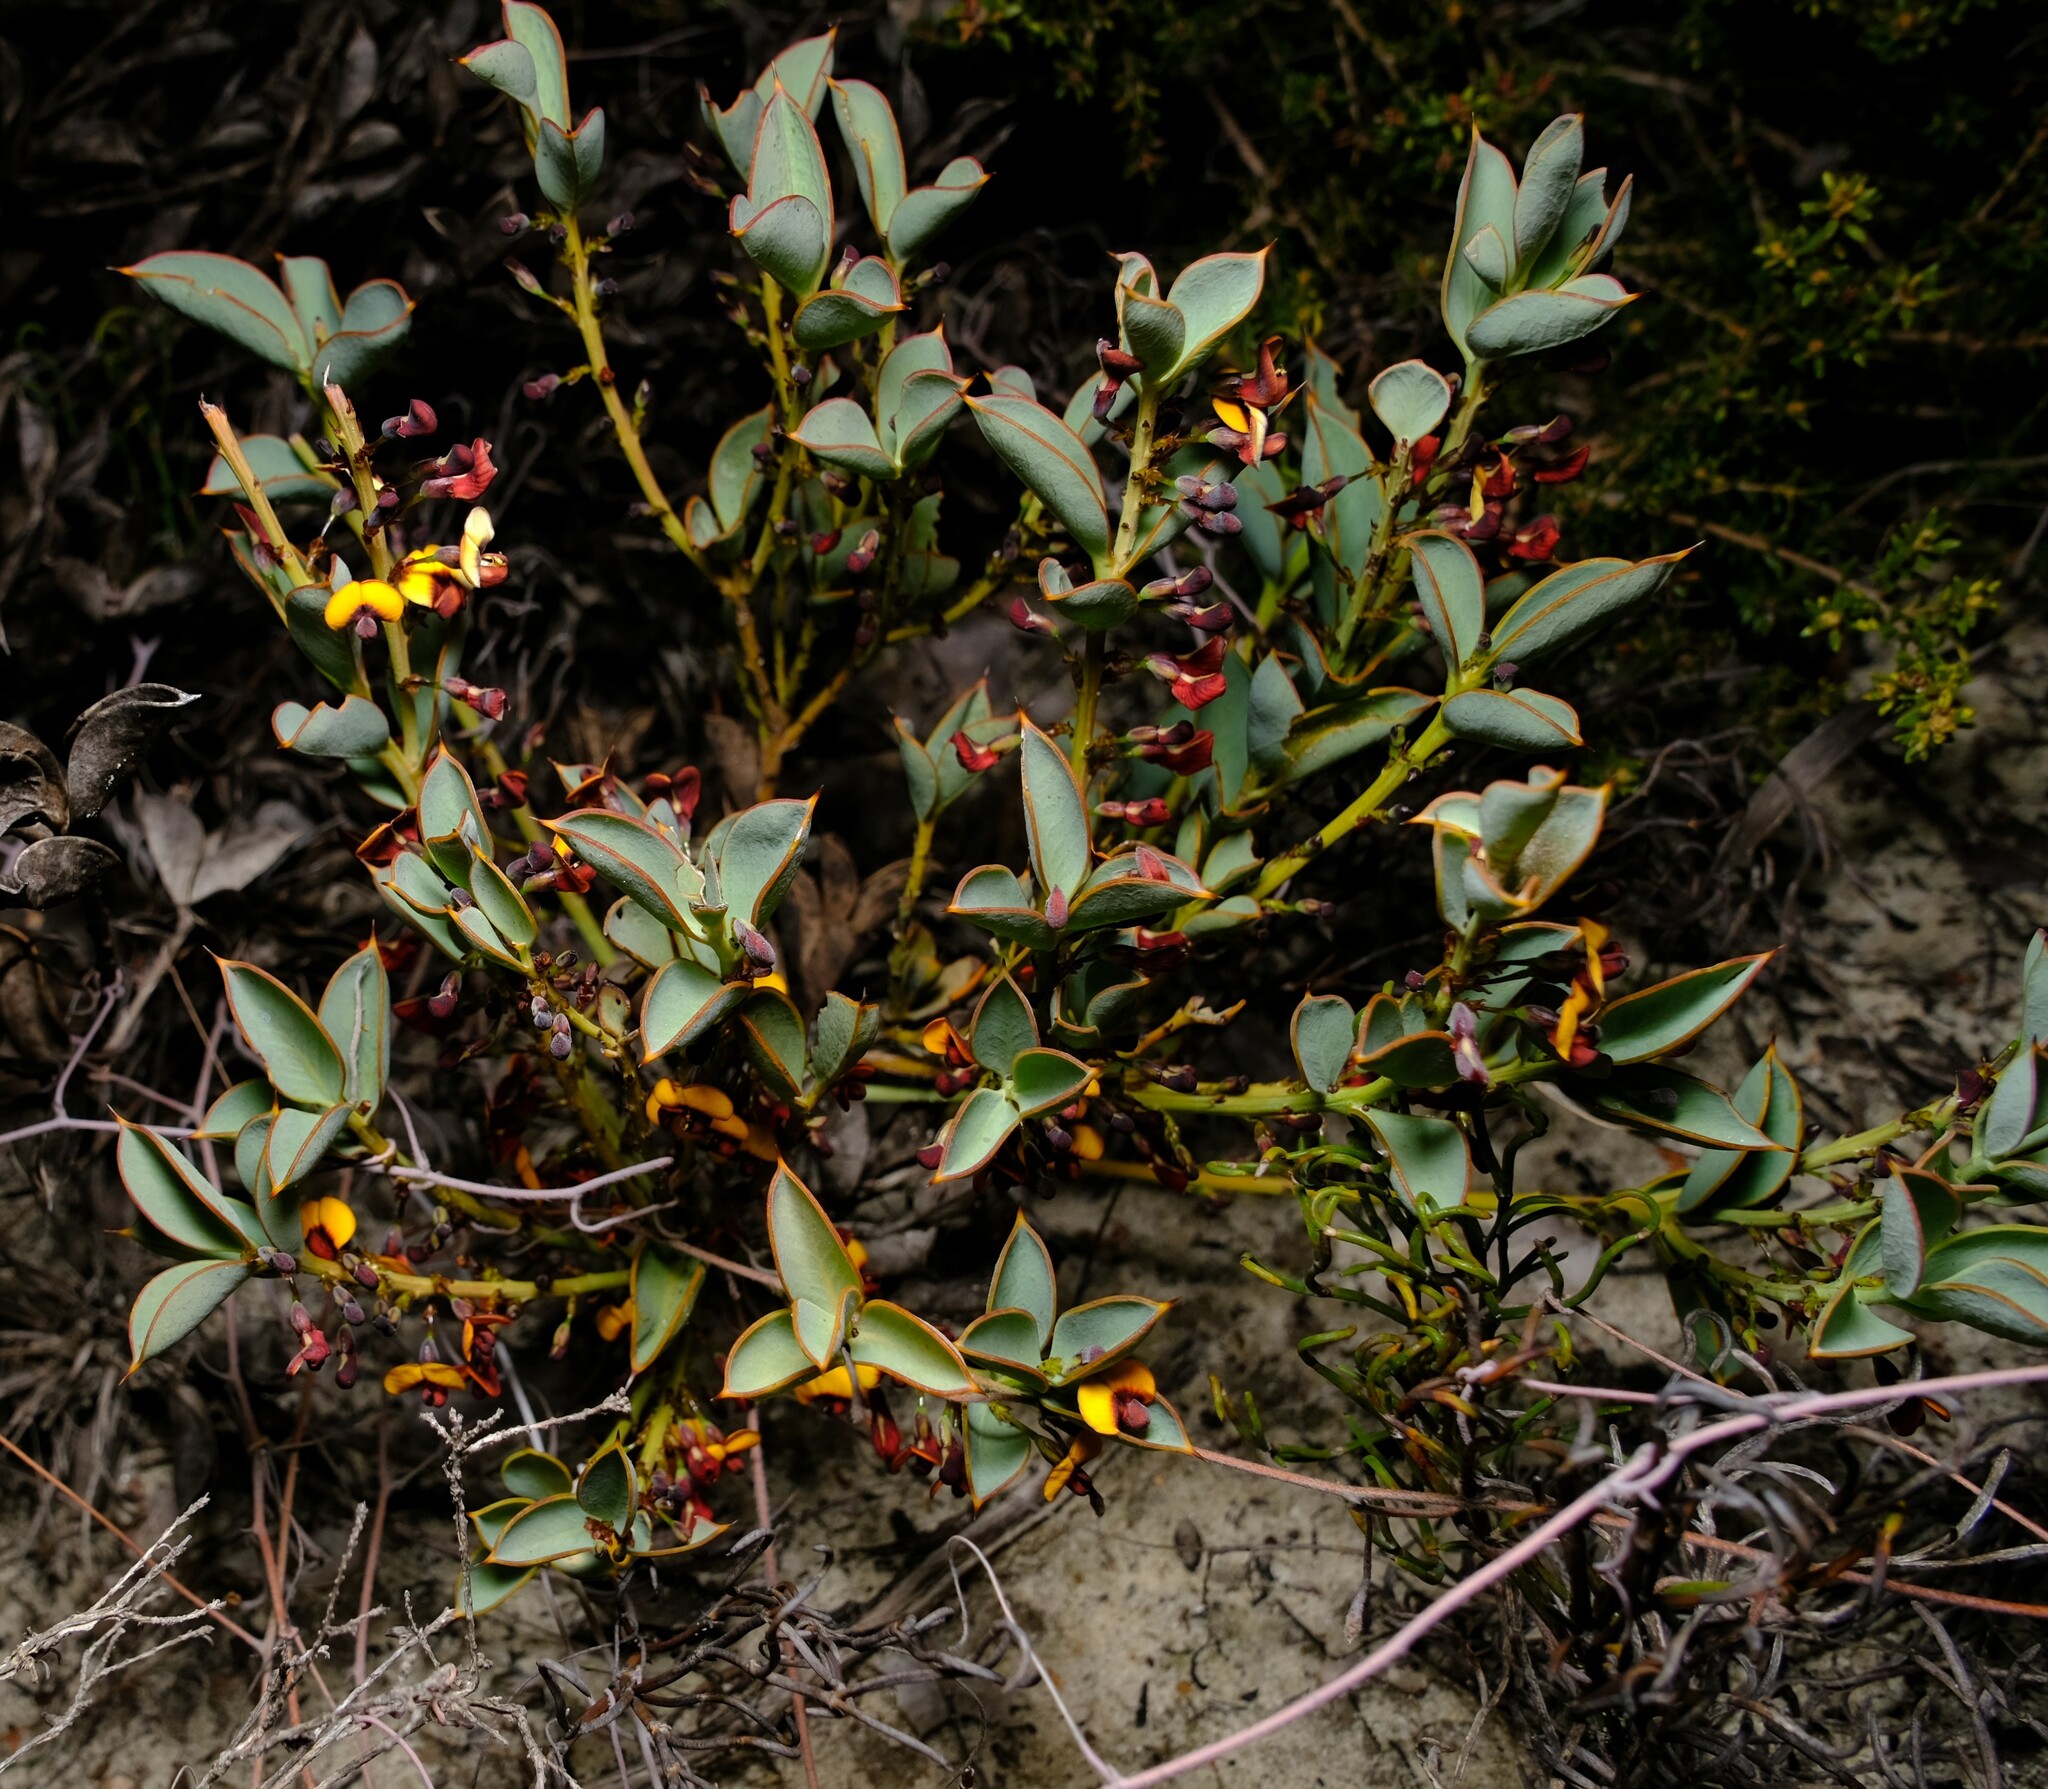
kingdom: Plantae
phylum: Tracheophyta
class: Magnoliopsida
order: Fabales
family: Fabaceae
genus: Daviesia
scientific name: Daviesia nudiflora
